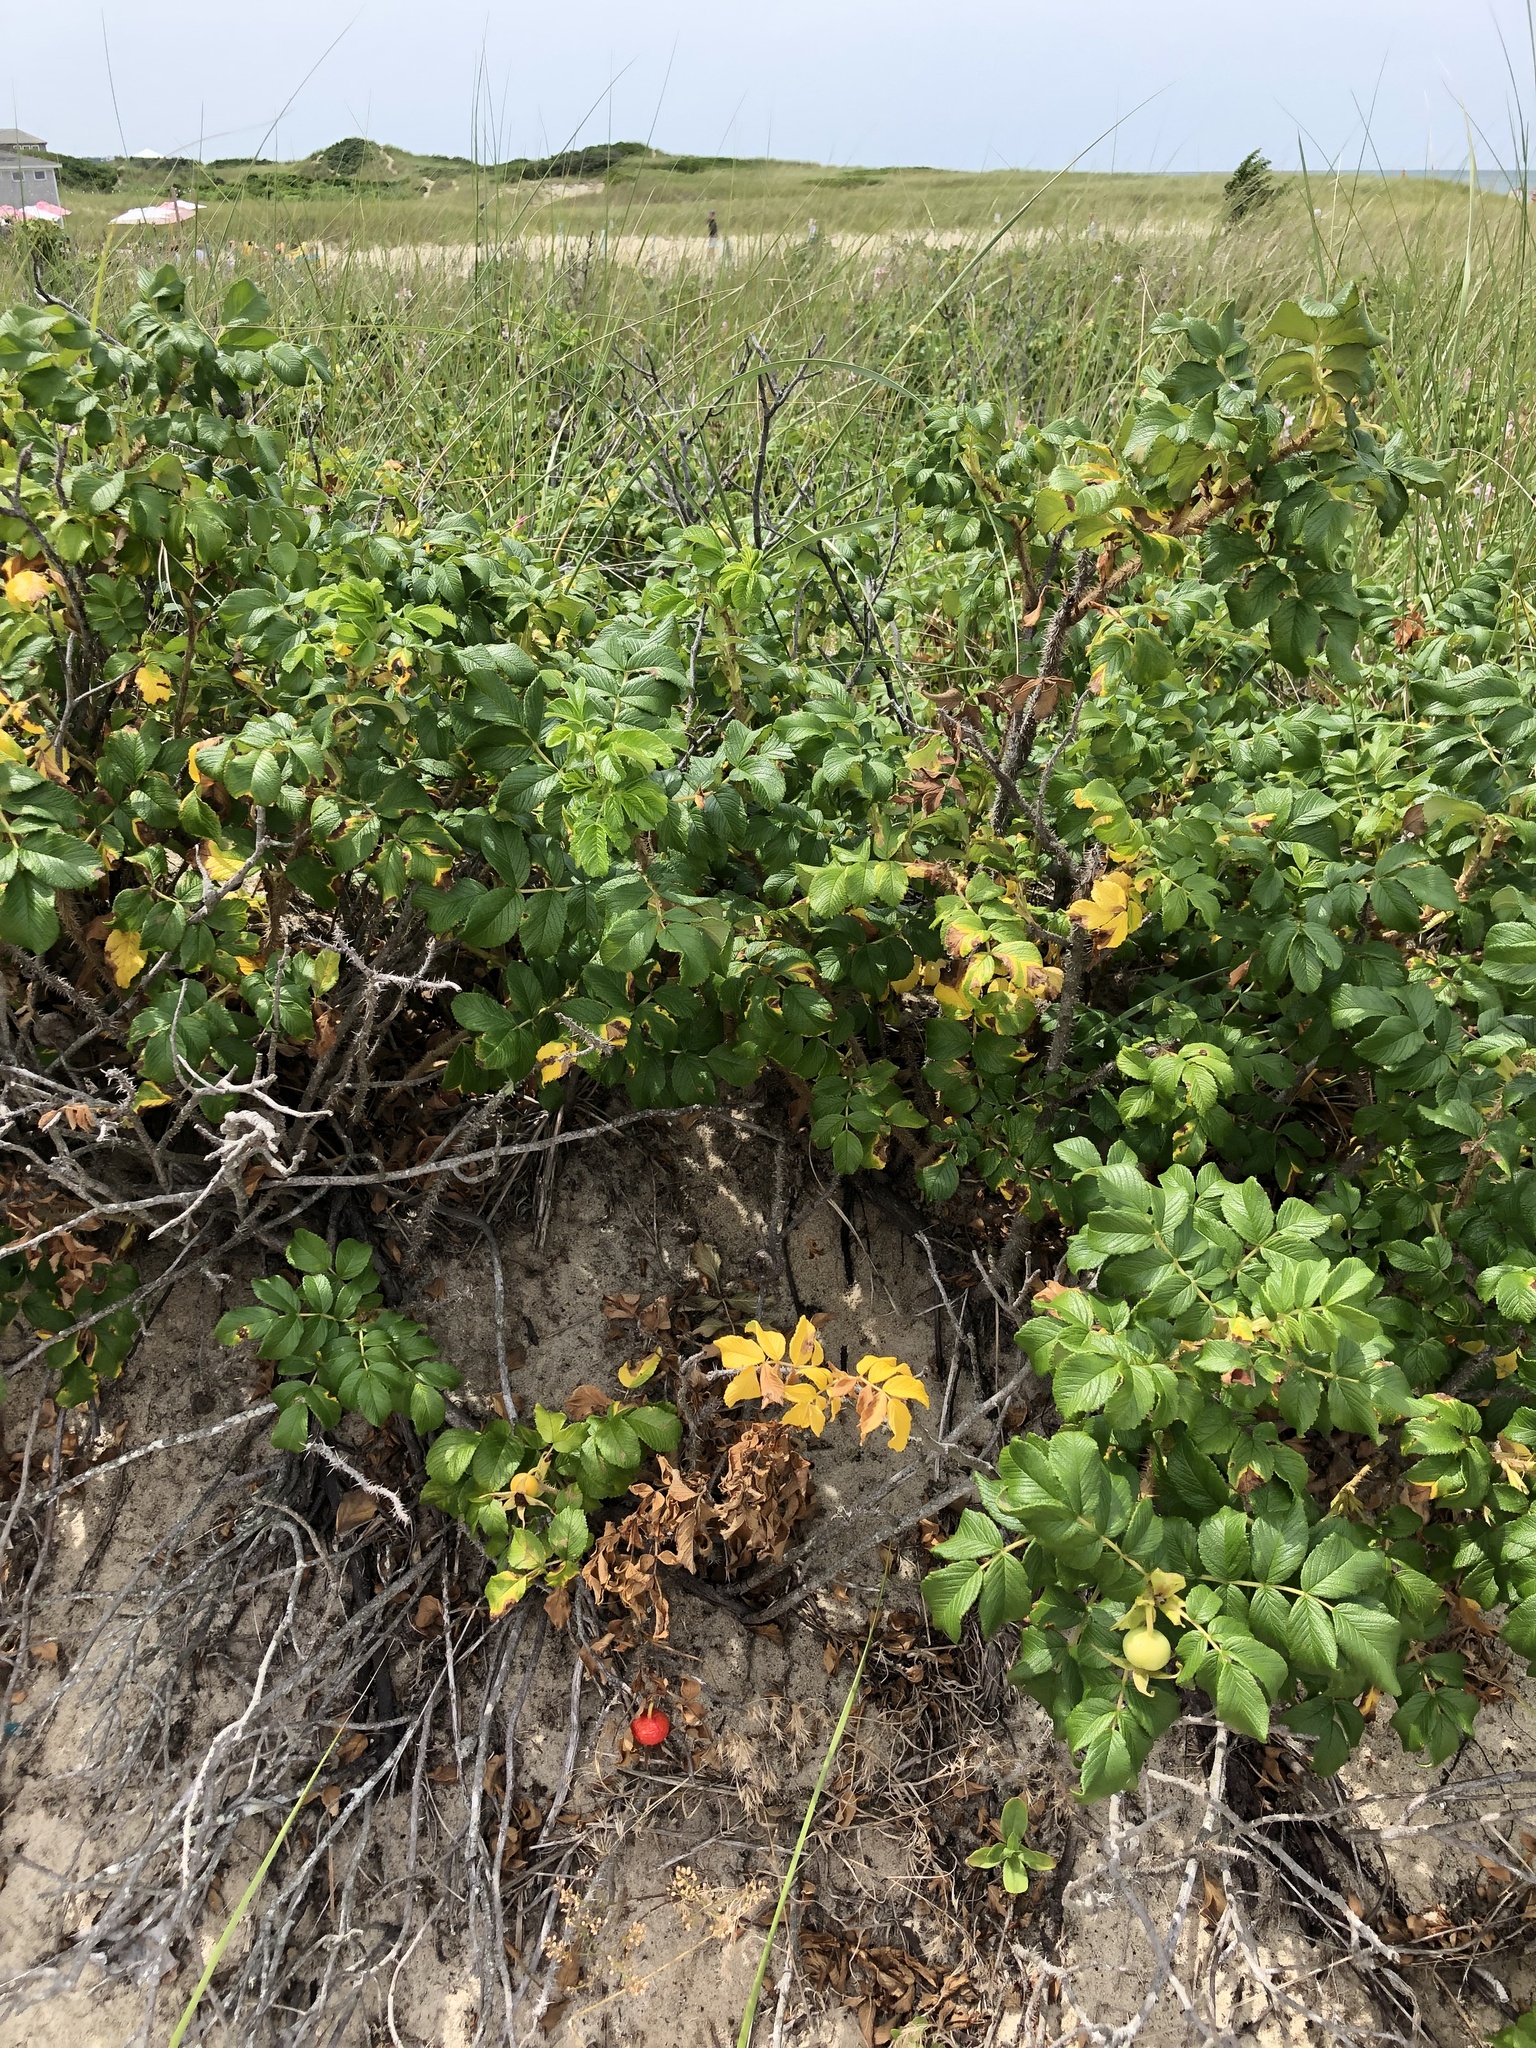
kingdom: Plantae
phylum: Tracheophyta
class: Magnoliopsida
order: Rosales
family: Rosaceae
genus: Rosa
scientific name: Rosa rugosa
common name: Japanese rose
